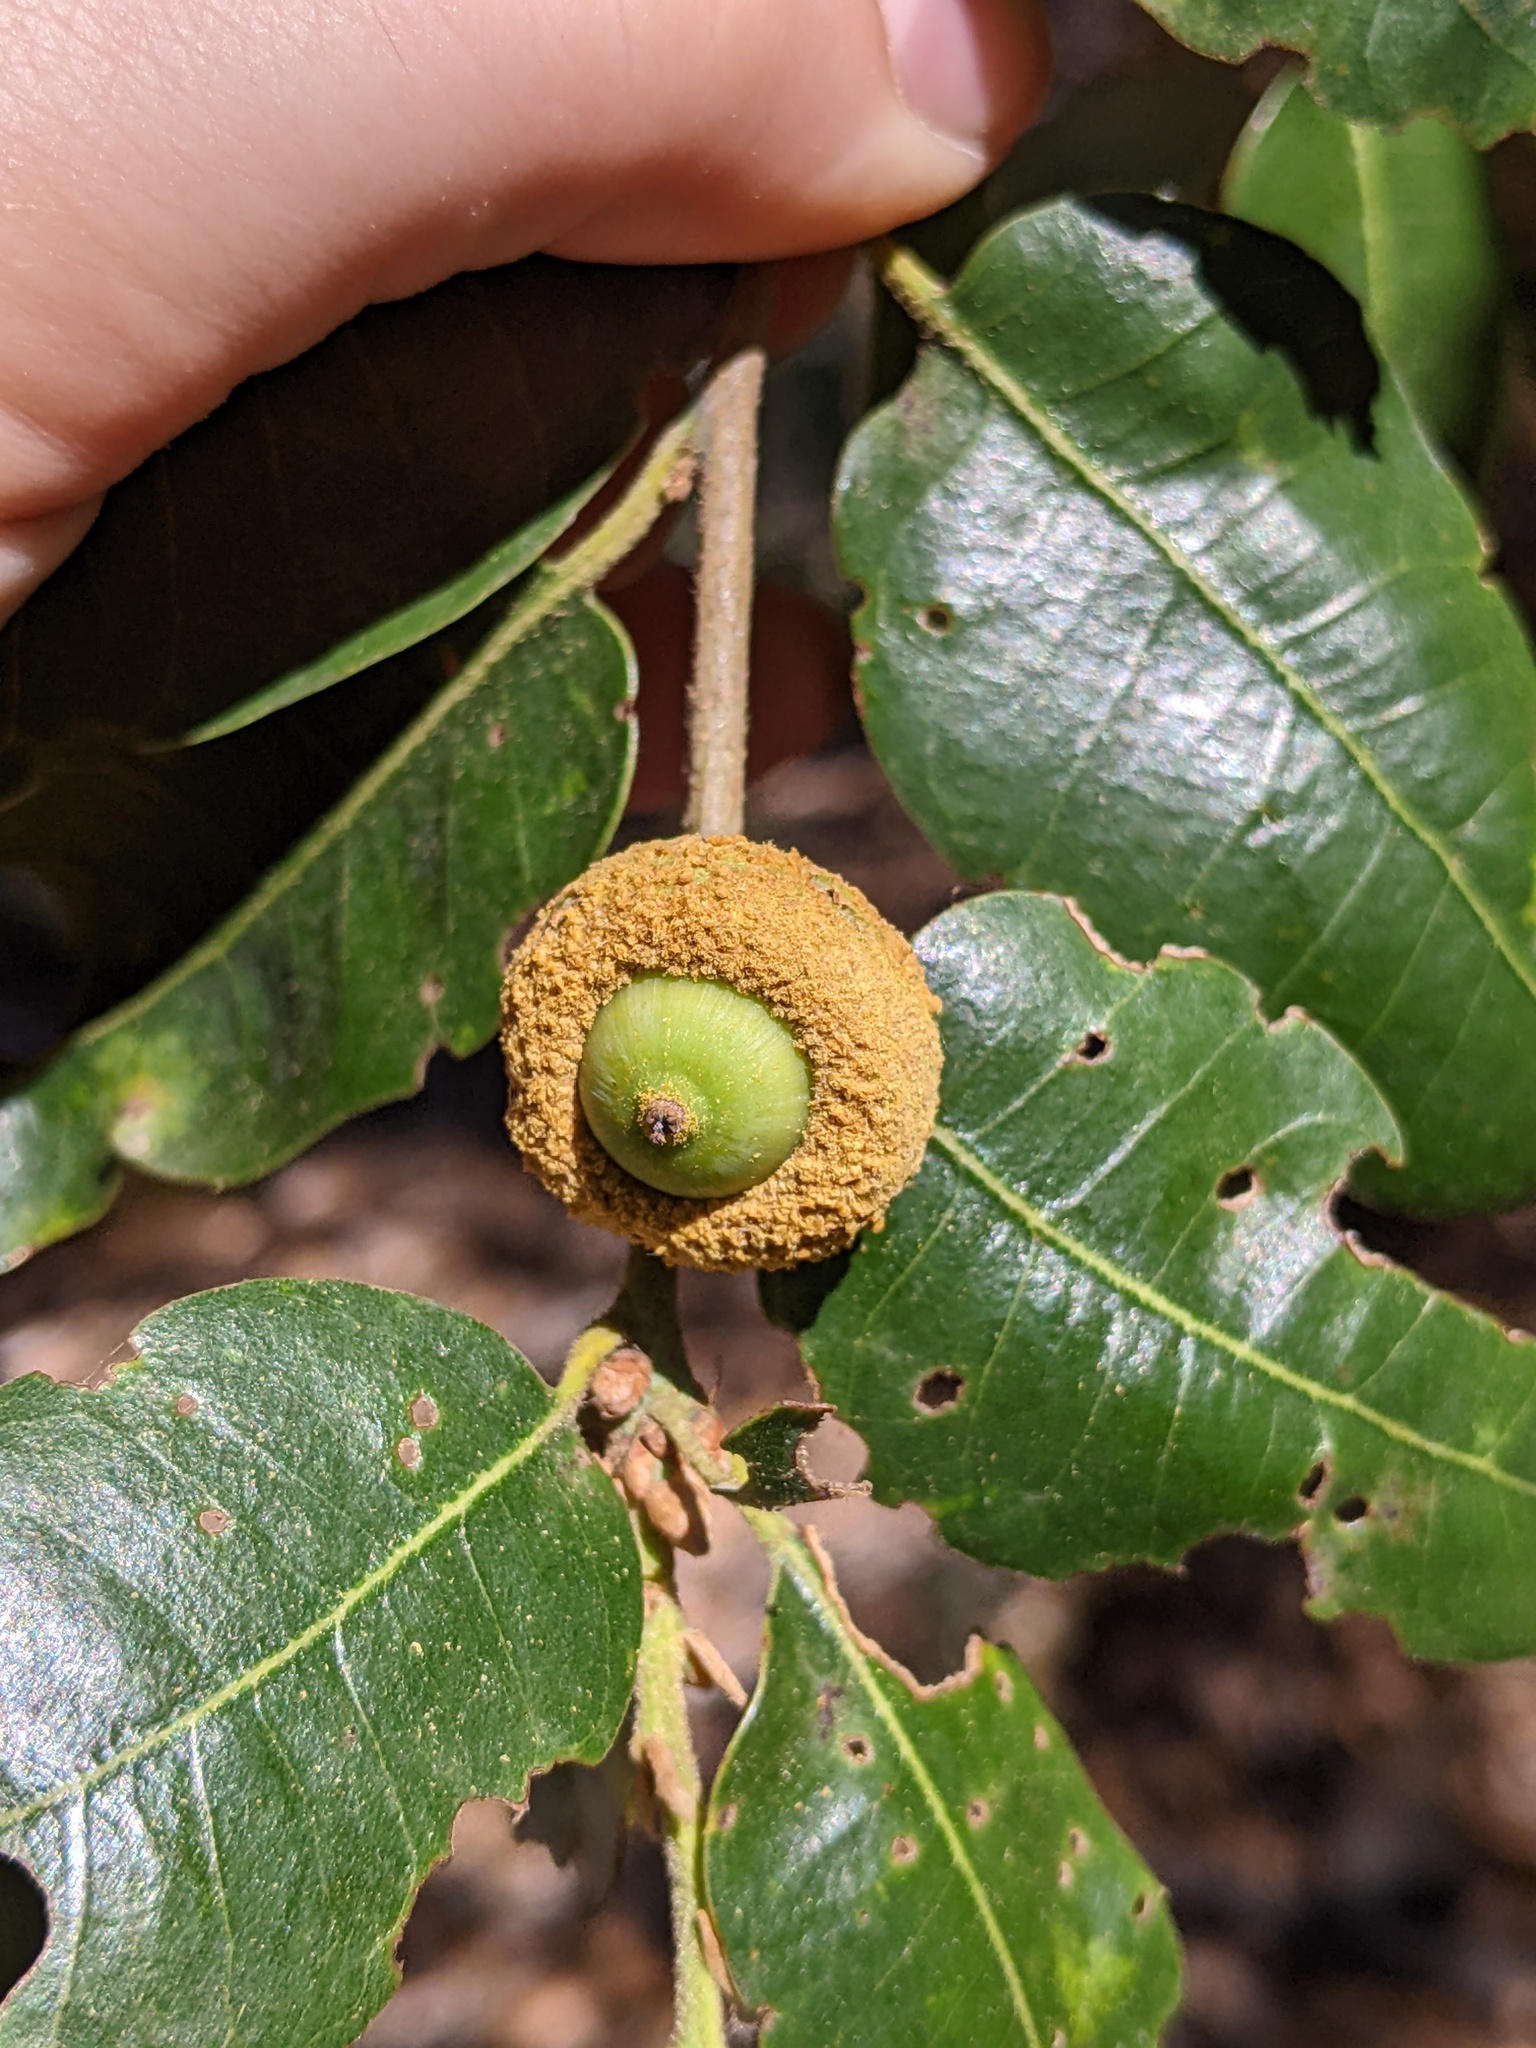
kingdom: Plantae
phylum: Tracheophyta
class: Magnoliopsida
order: Fagales
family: Fagaceae
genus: Quercus
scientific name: Quercus chrysolepis
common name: Canyon live oak
